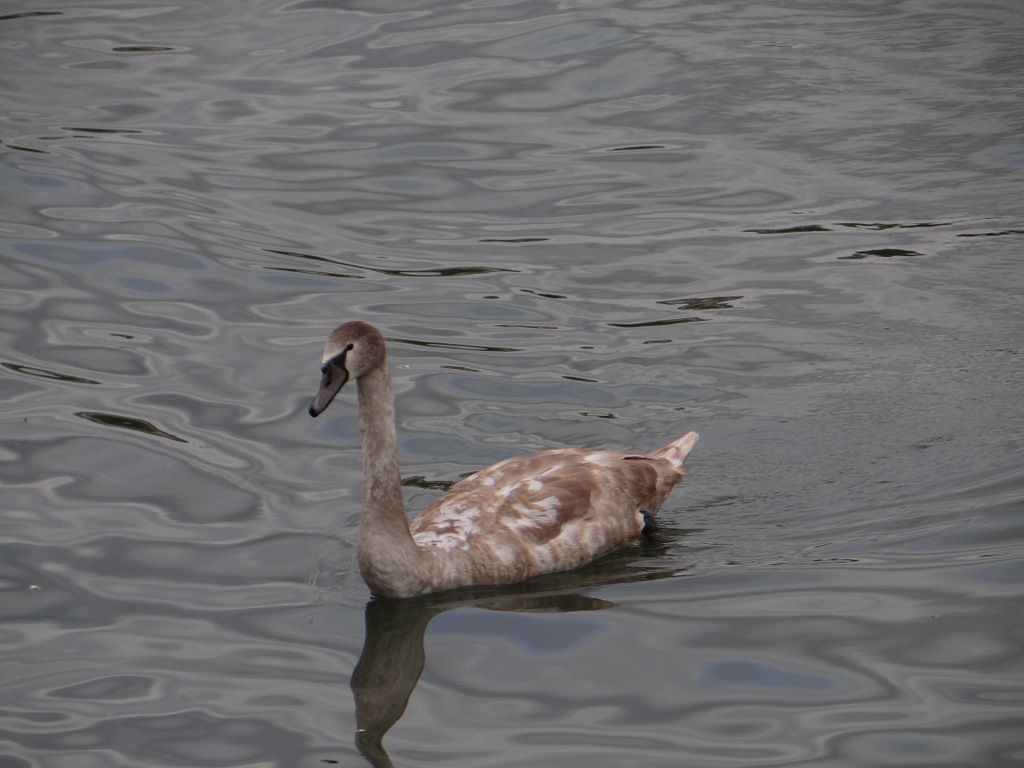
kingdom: Animalia
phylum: Chordata
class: Aves
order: Anseriformes
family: Anatidae
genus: Cygnus
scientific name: Cygnus olor
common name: Mute swan
